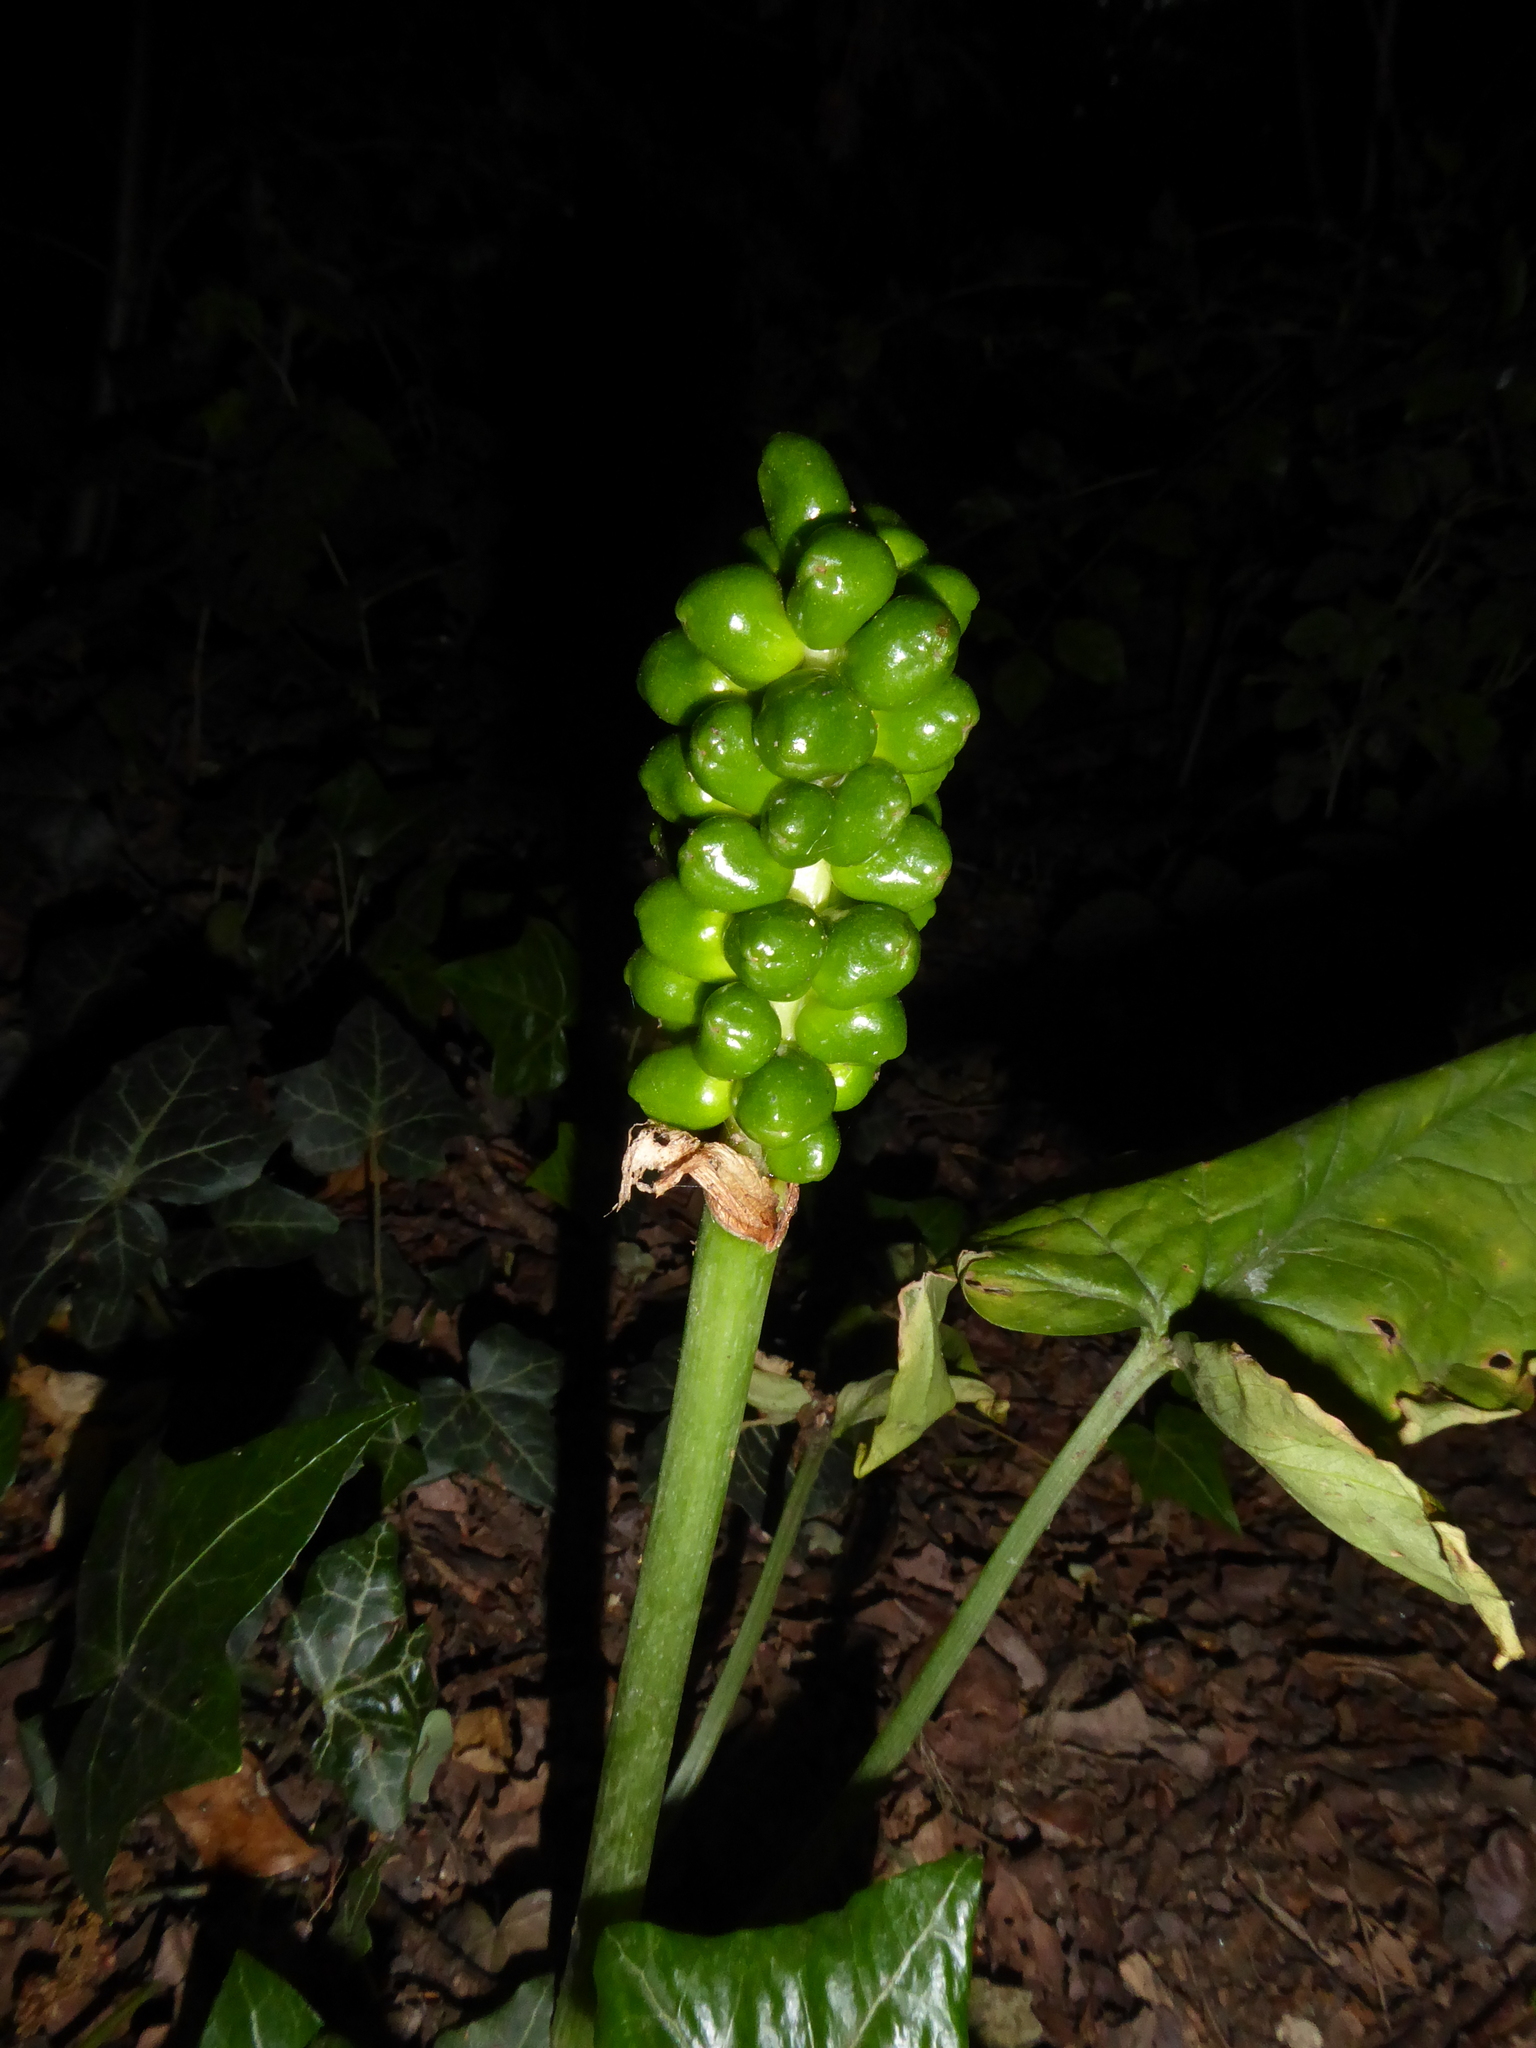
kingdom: Plantae
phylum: Tracheophyta
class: Liliopsida
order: Alismatales
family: Araceae
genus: Arum
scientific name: Arum maculatum
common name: Lords-and-ladies
